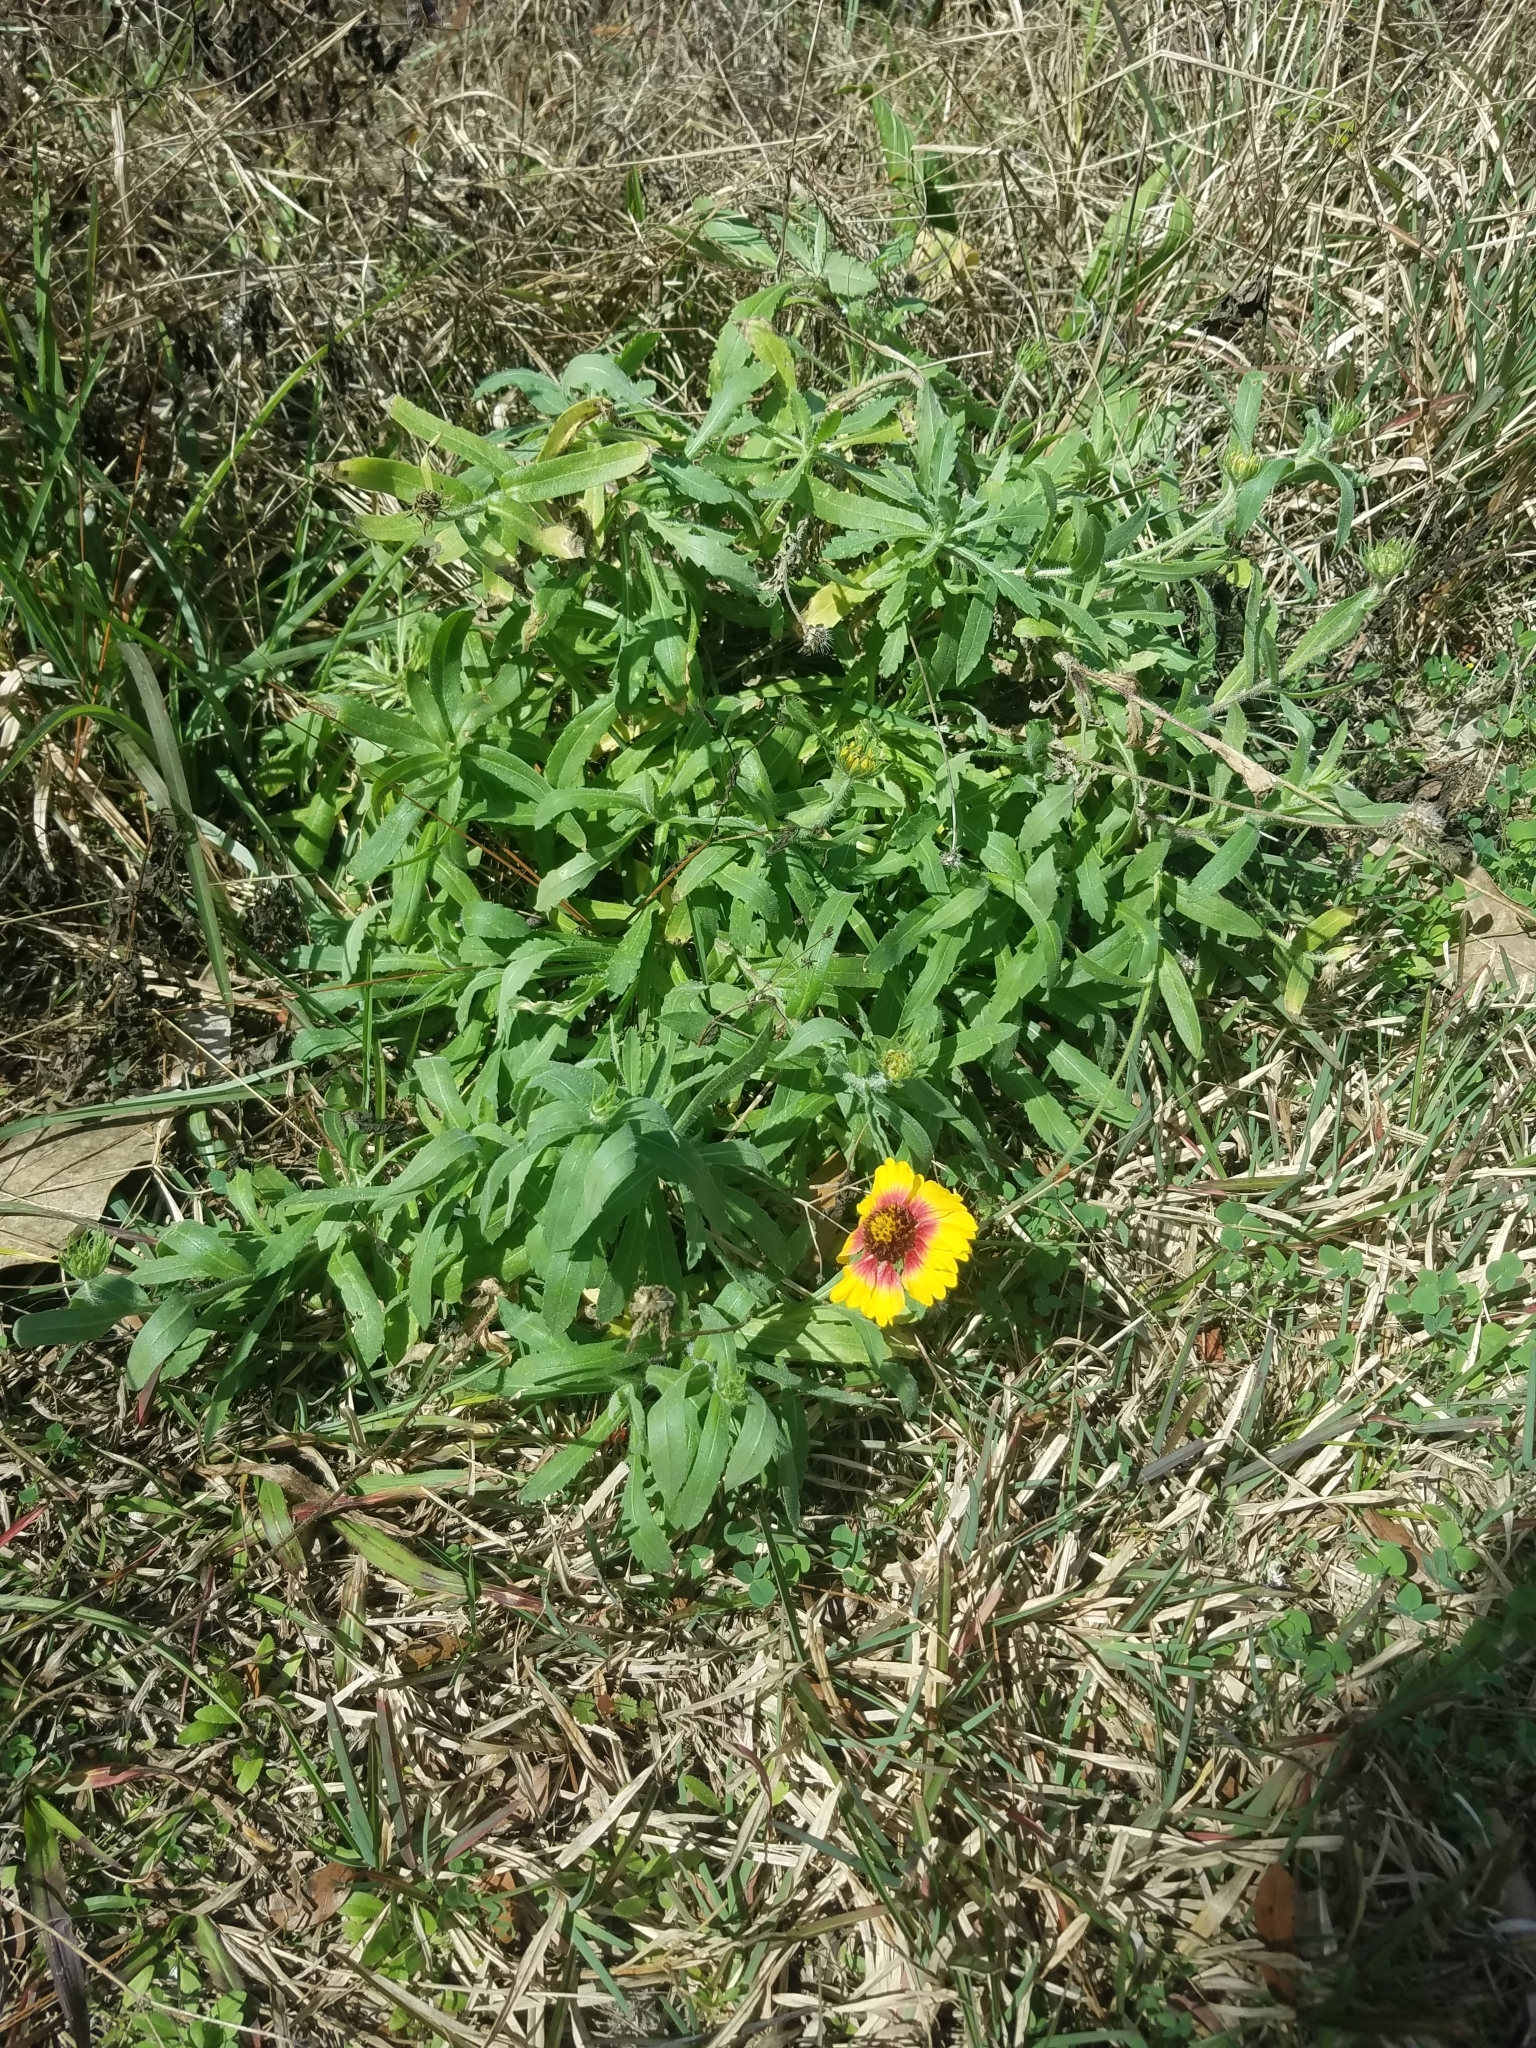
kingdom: Plantae
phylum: Tracheophyta
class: Magnoliopsida
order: Asterales
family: Asteraceae
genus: Gaillardia
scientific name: Gaillardia pulchella
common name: Firewheel
